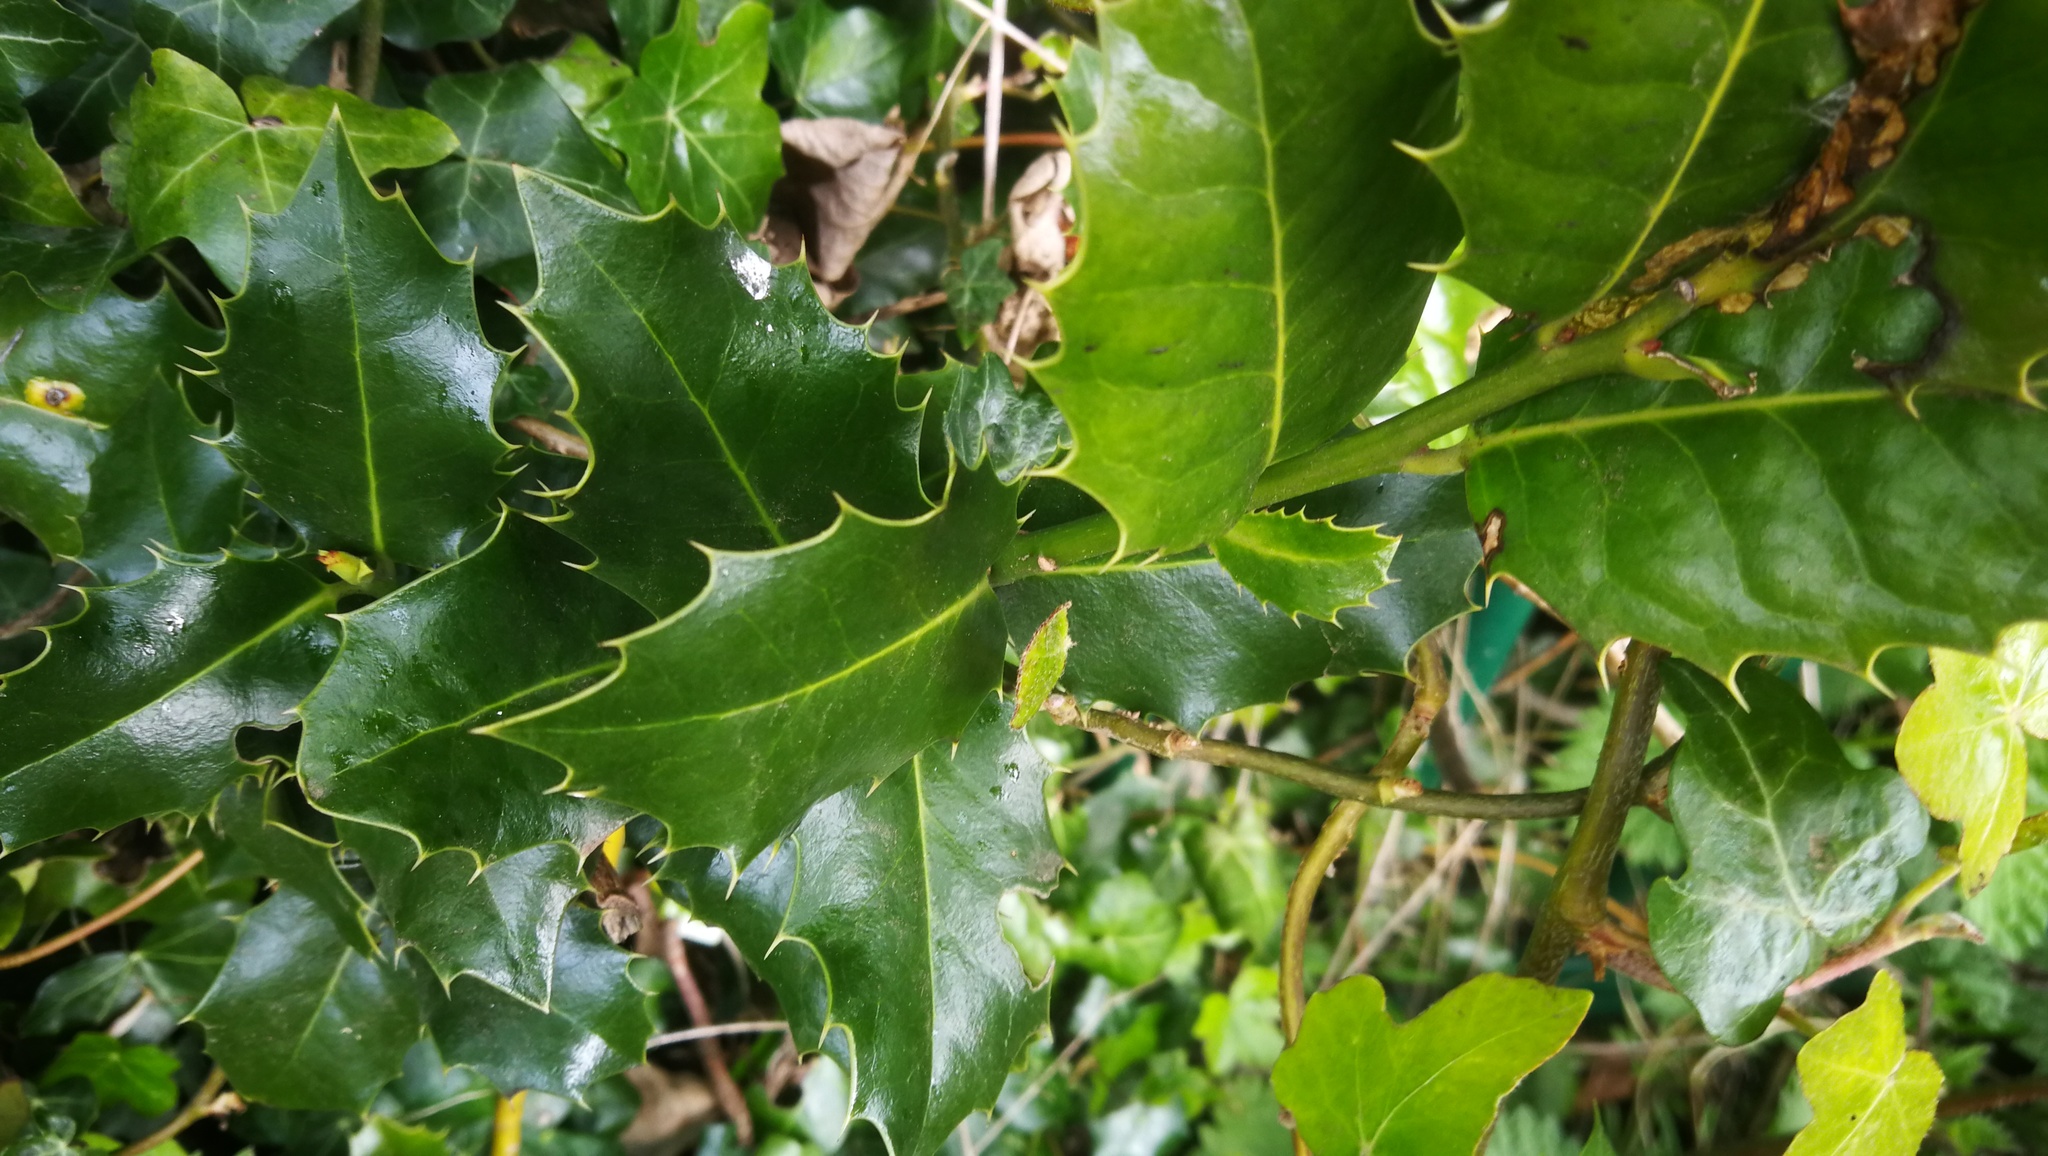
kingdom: Plantae
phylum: Tracheophyta
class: Magnoliopsida
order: Aquifoliales
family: Aquifoliaceae
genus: Ilex
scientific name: Ilex aquifolium
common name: English holly
